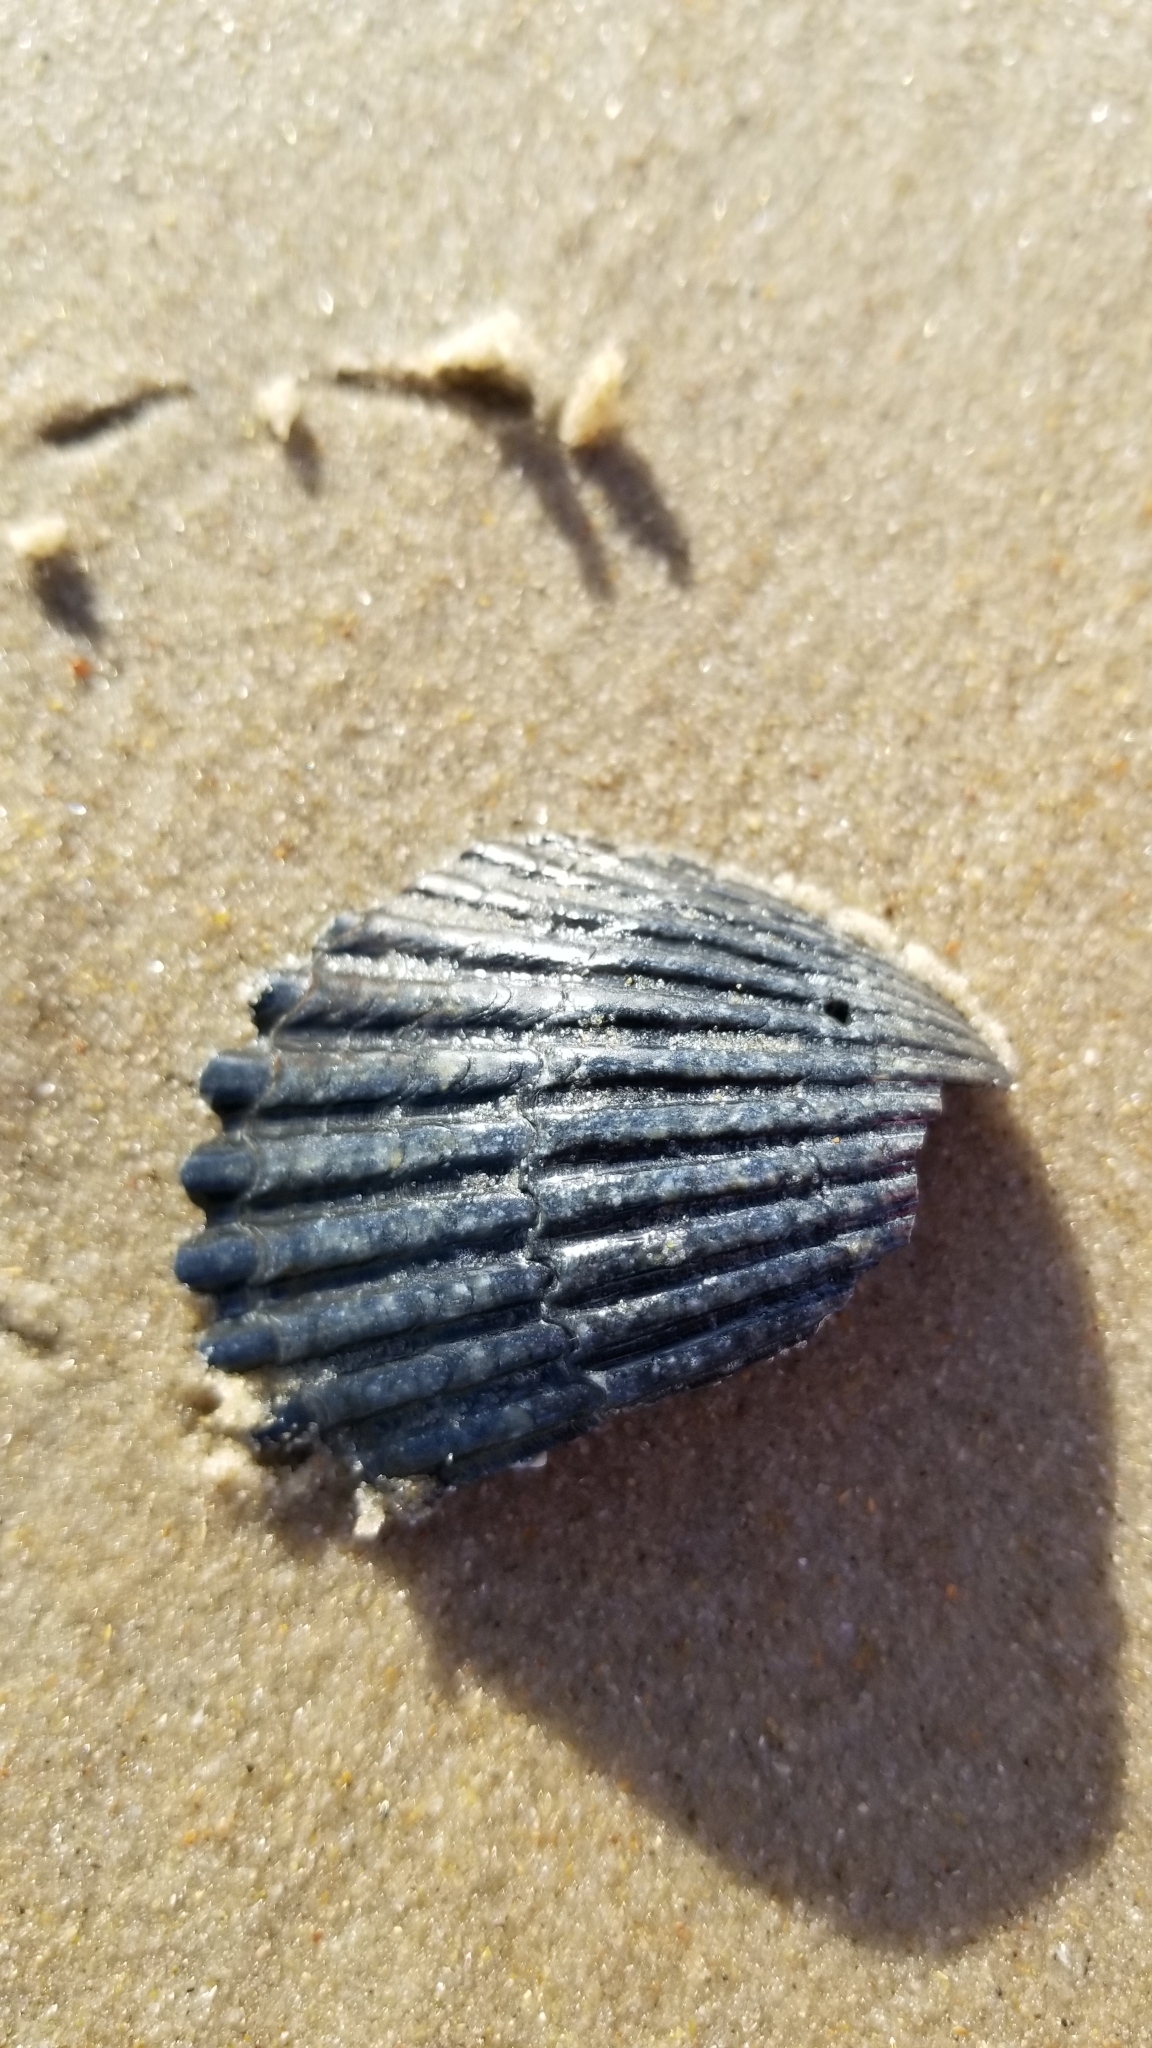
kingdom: Animalia
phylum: Mollusca
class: Bivalvia
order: Pectinida
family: Pectinidae
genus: Argopecten
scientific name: Argopecten irradians
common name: Atlantic bay scallop
